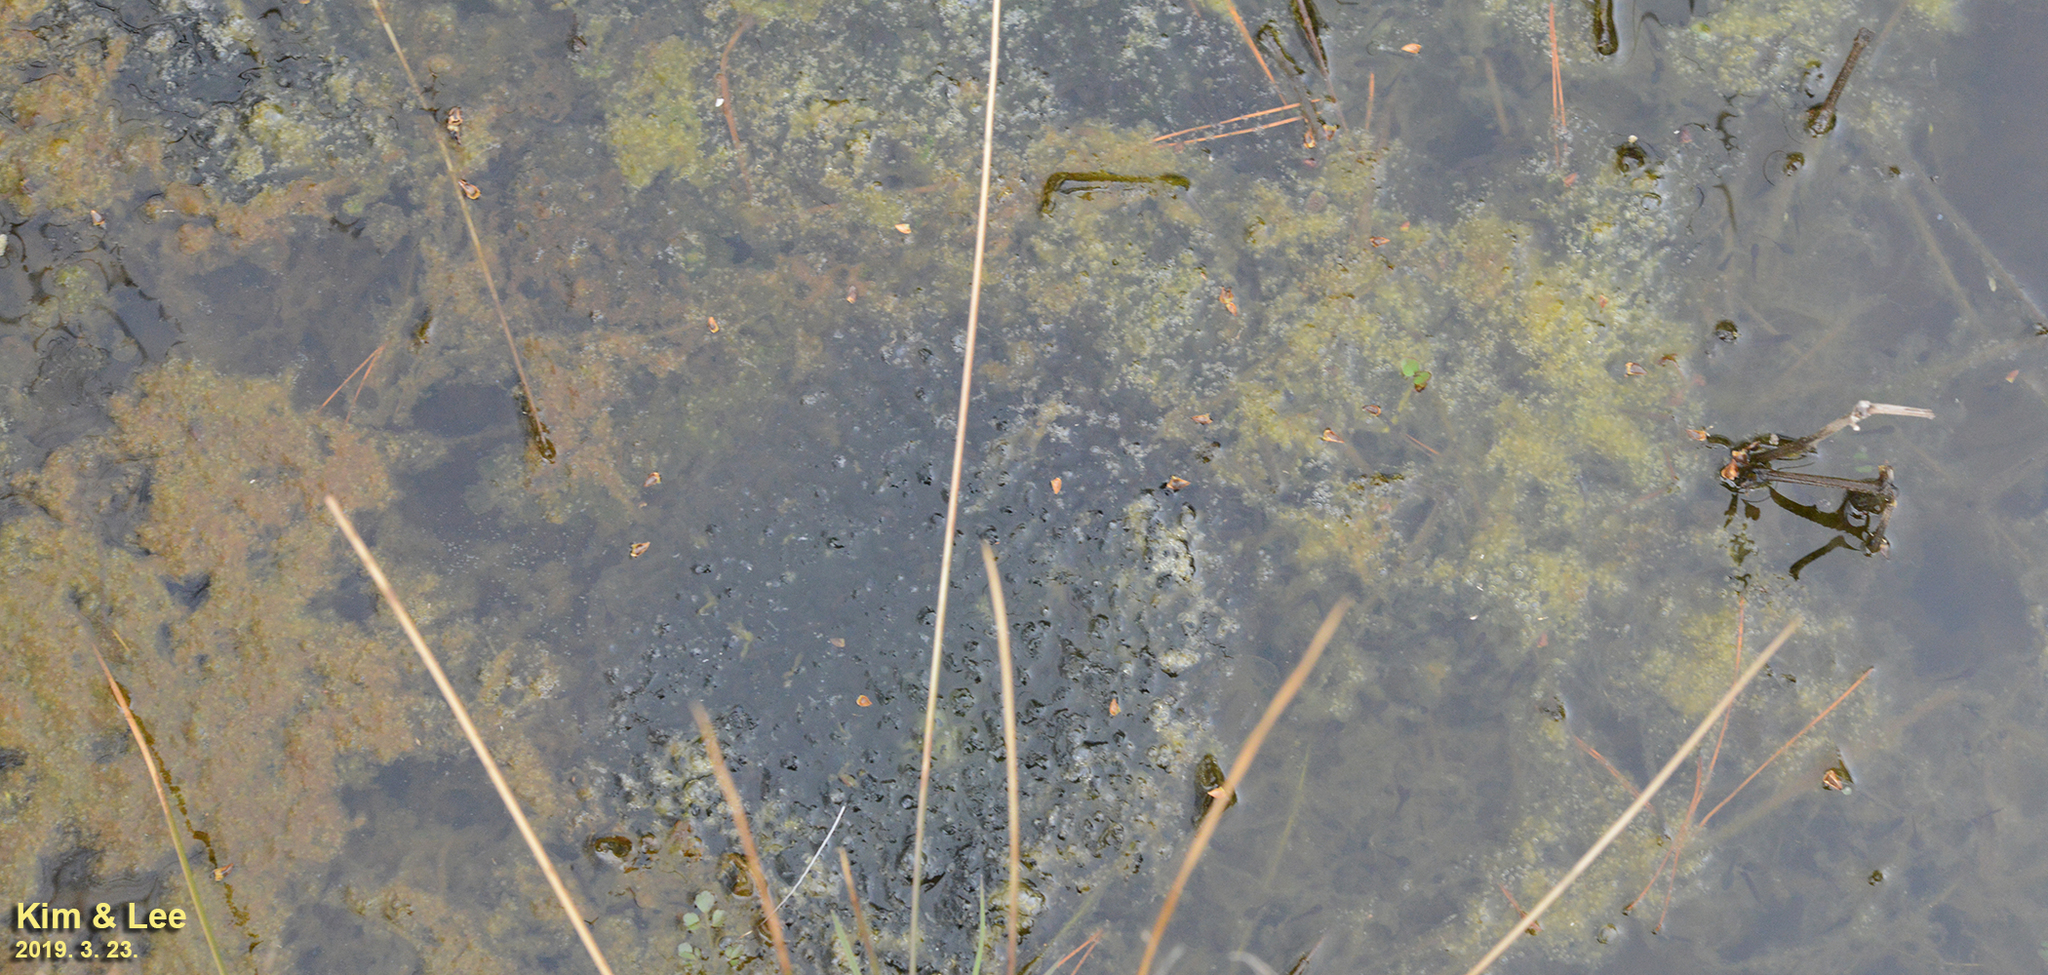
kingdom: Animalia
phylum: Chordata
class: Amphibia
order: Anura
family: Ranidae
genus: Rana
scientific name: Rana uenoi
